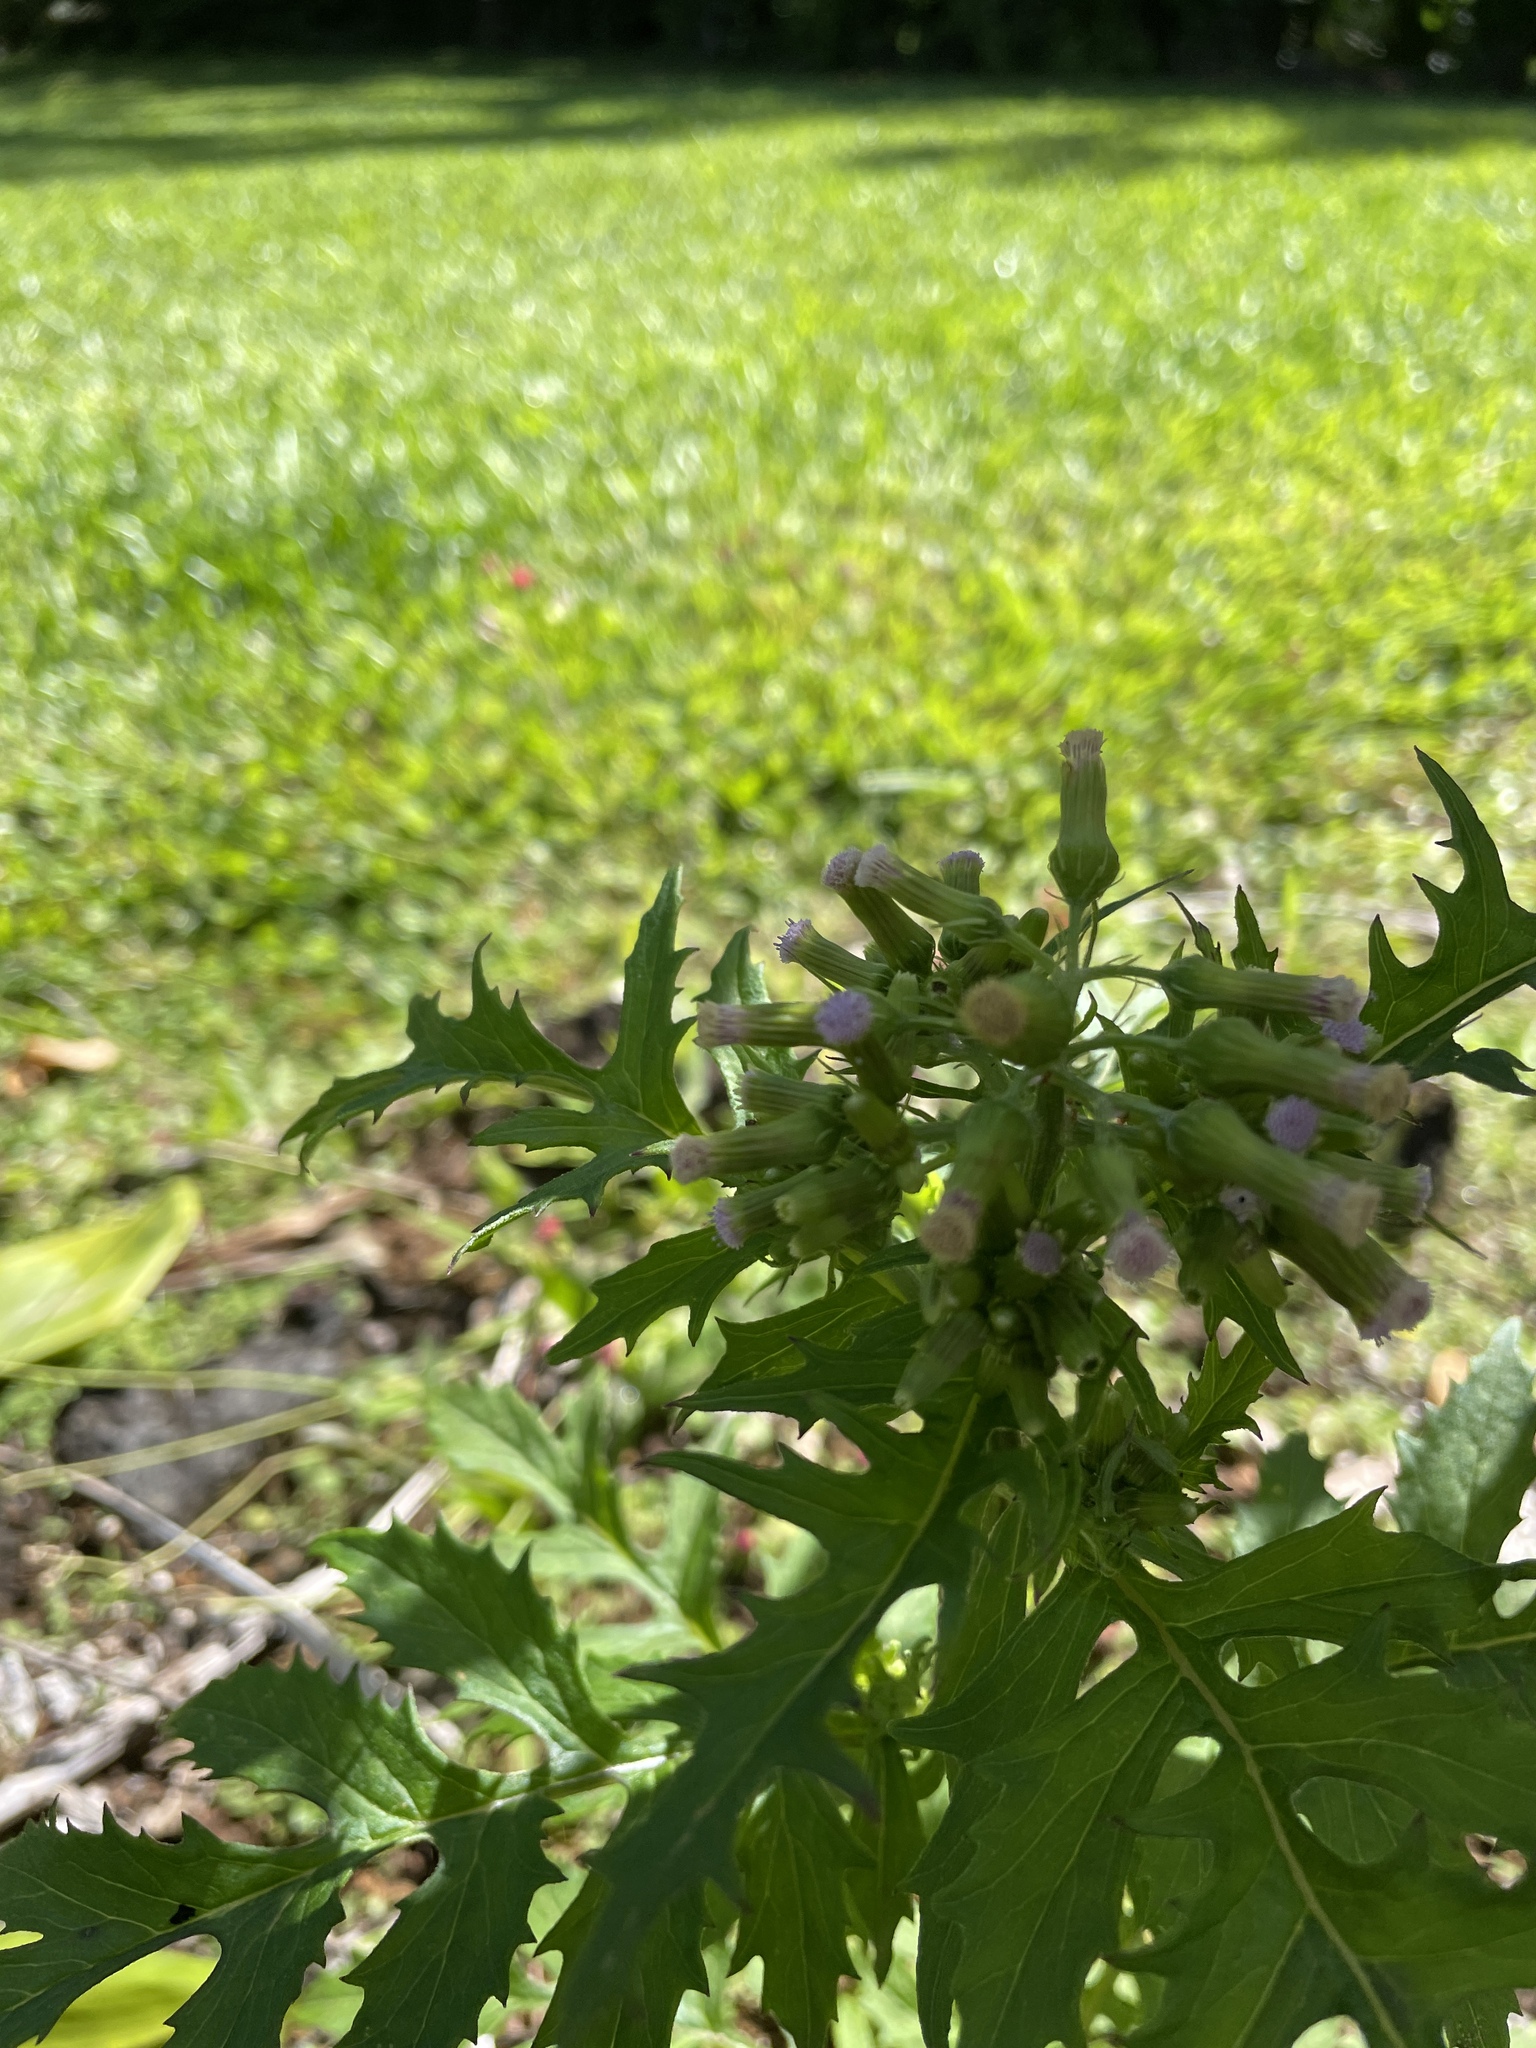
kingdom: Plantae
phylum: Tracheophyta
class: Magnoliopsida
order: Asterales
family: Asteraceae
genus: Erechtites
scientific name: Erechtites valerianifolius
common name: Tropical burnweed
